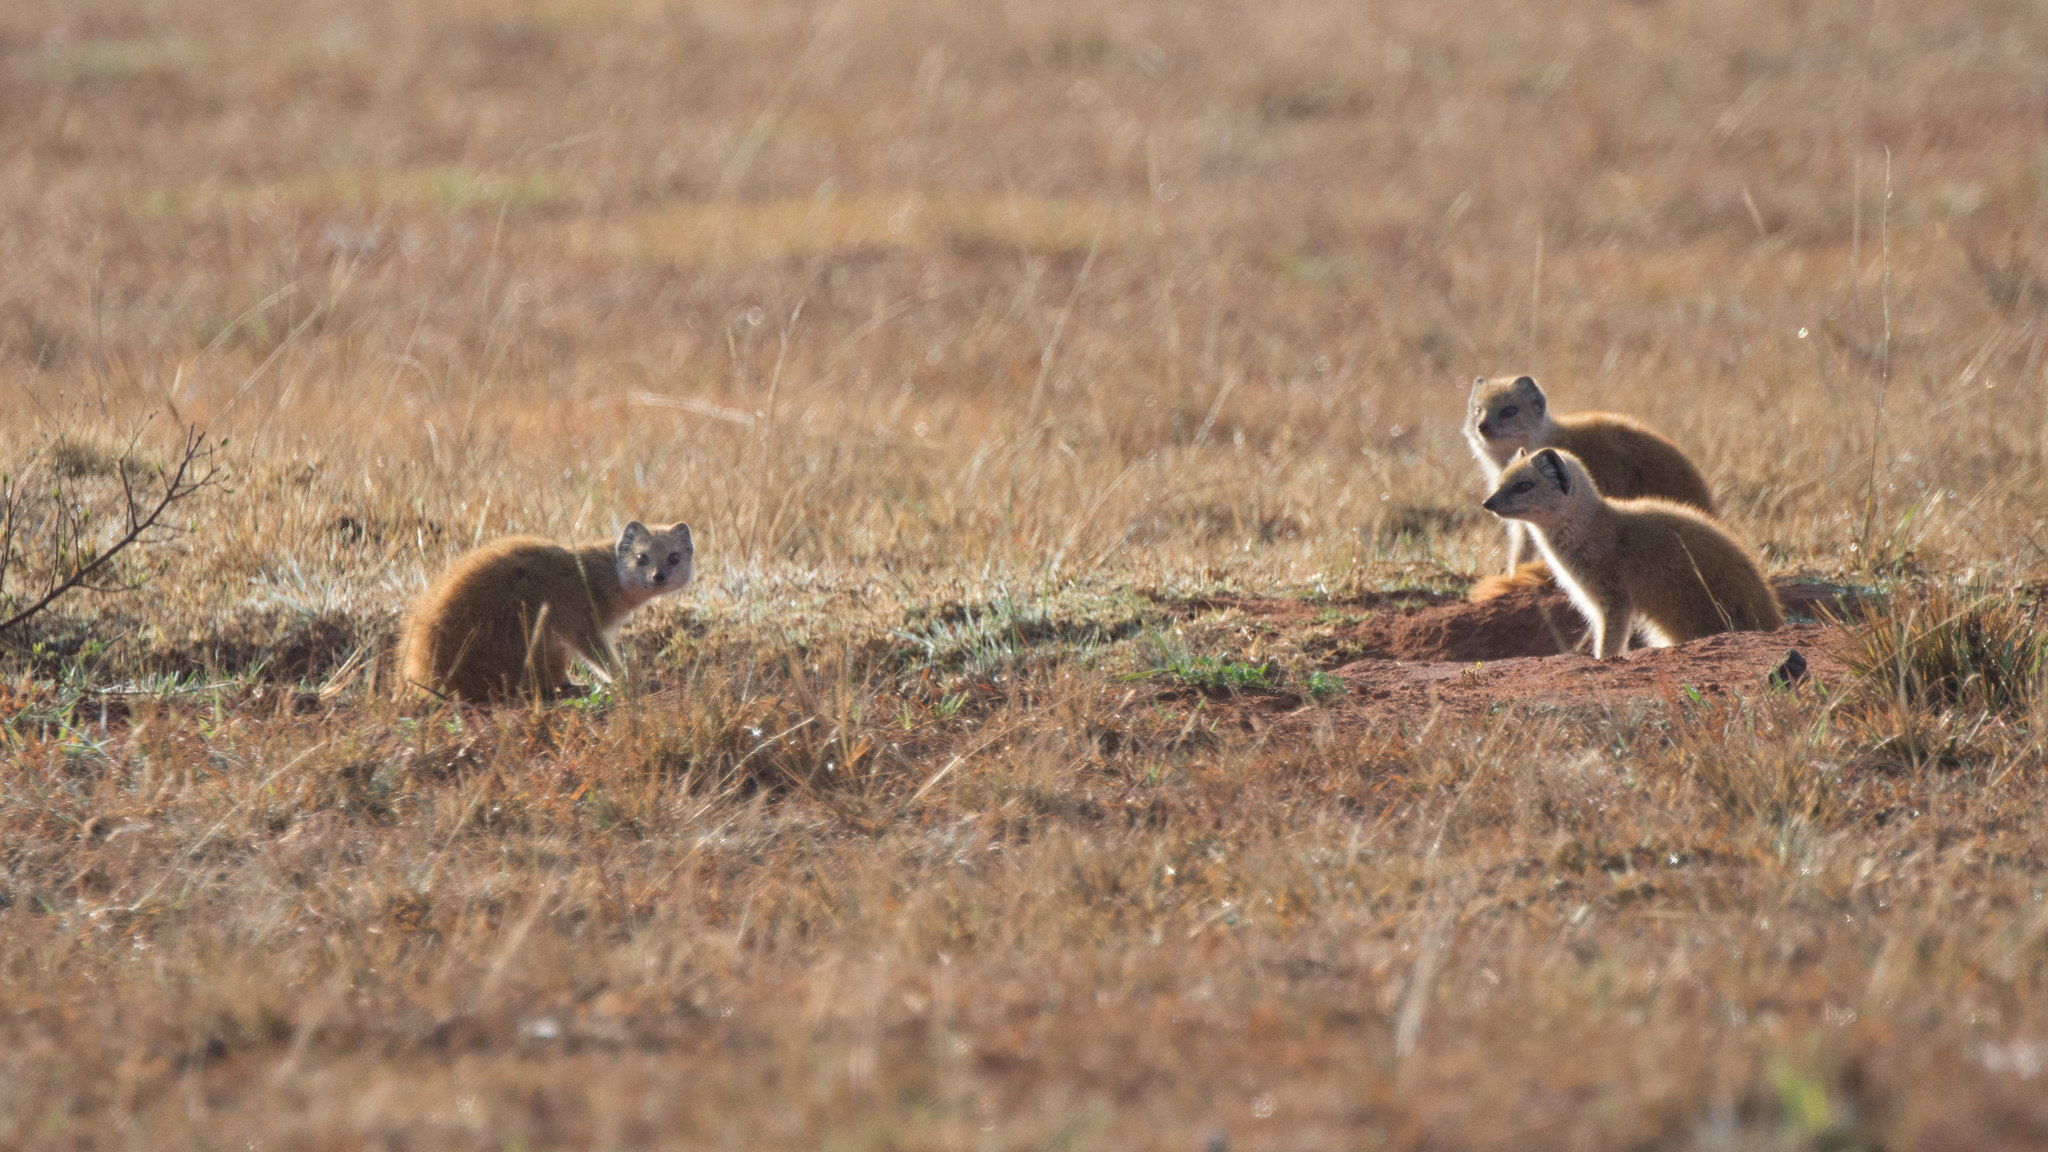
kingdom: Animalia
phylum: Chordata
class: Mammalia
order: Carnivora
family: Herpestidae
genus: Cynictis
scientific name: Cynictis penicillata
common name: Yellow mongoose
